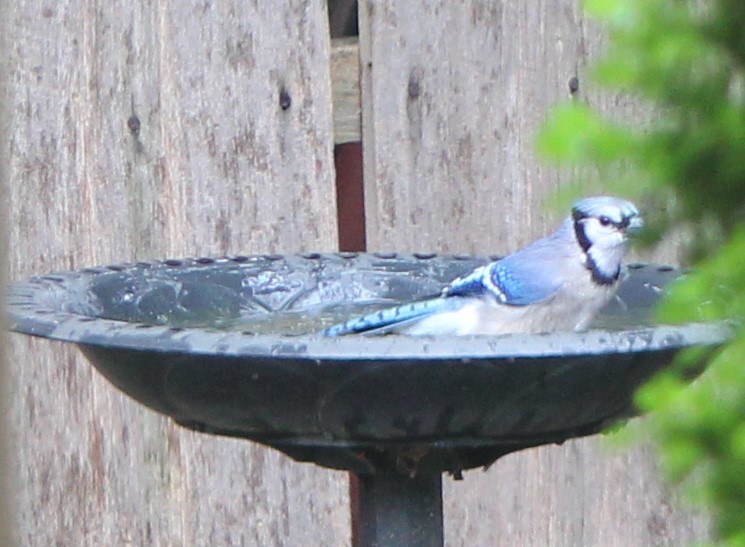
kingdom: Animalia
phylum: Chordata
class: Aves
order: Passeriformes
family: Corvidae
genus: Cyanocitta
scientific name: Cyanocitta cristata
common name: Blue jay
